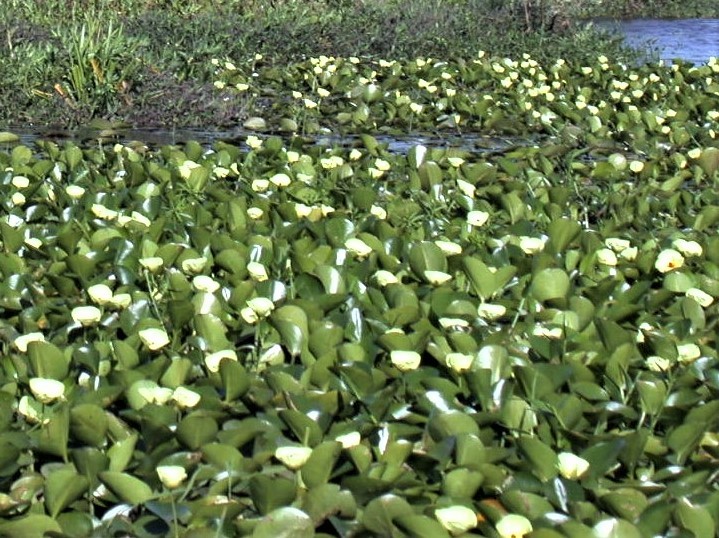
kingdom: Plantae
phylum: Tracheophyta
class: Liliopsida
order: Alismatales
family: Alismataceae
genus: Hydrocleys
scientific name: Hydrocleys nymphoides
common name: Water-poppy
